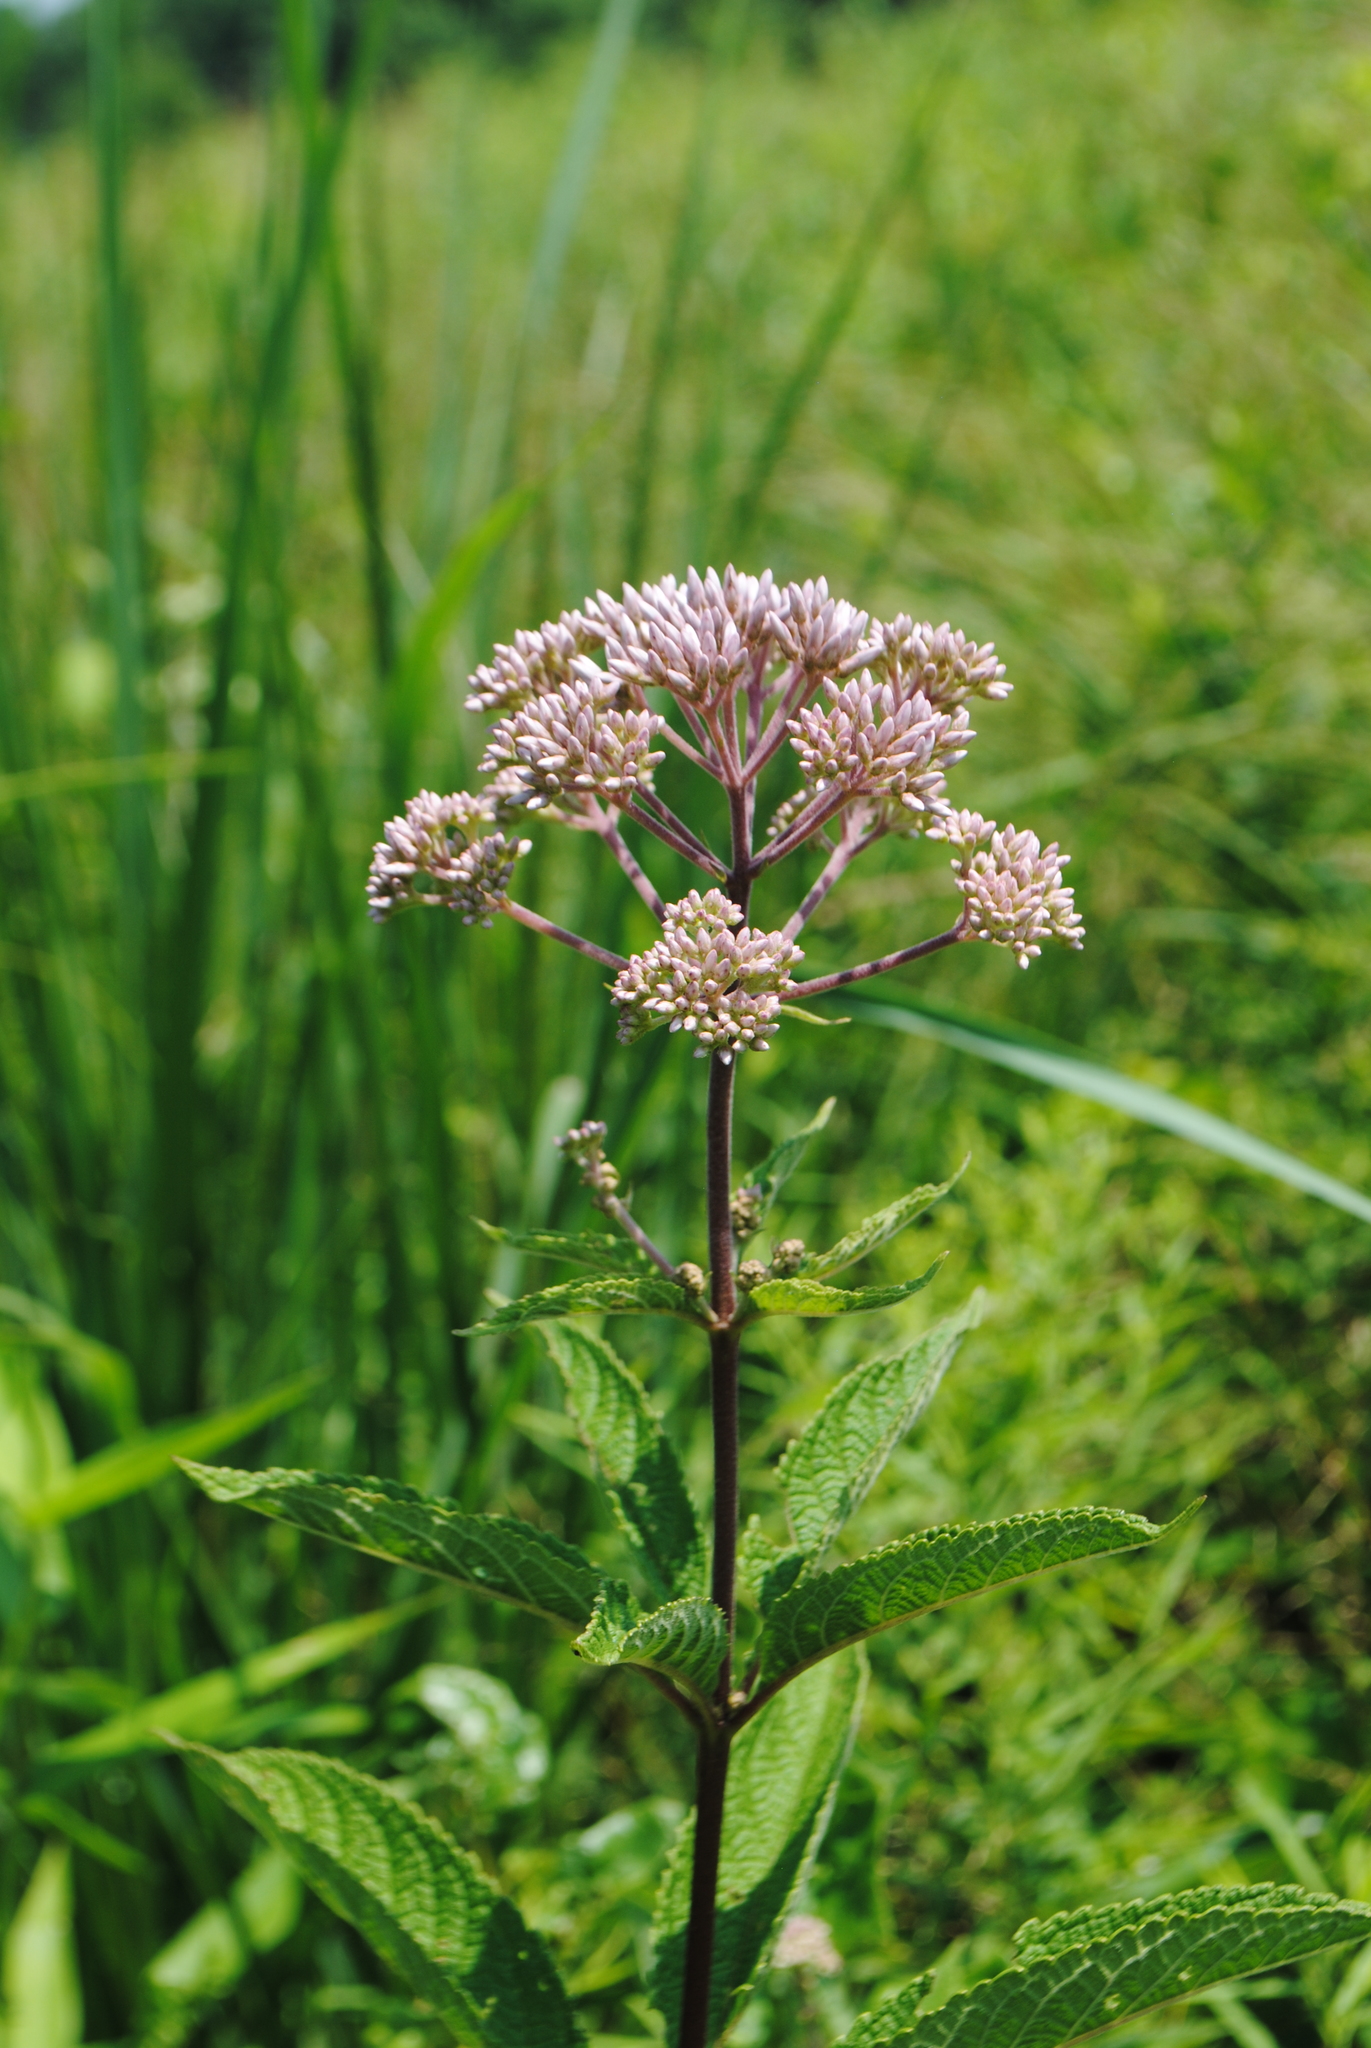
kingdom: Plantae
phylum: Tracheophyta
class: Magnoliopsida
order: Asterales
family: Asteraceae
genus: Eutrochium
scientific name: Eutrochium maculatum
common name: Spotted joe pye weed
